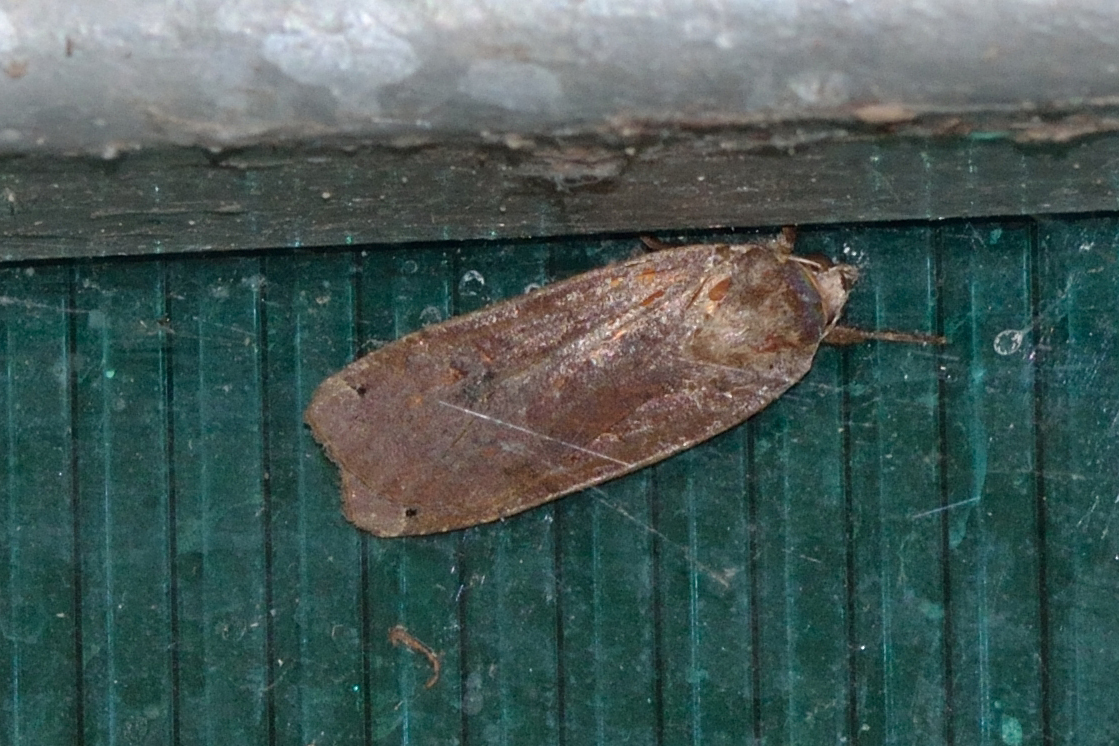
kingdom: Animalia
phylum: Arthropoda
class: Insecta
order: Lepidoptera
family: Noctuidae
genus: Noctua
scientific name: Noctua pronuba
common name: Large yellow underwing
